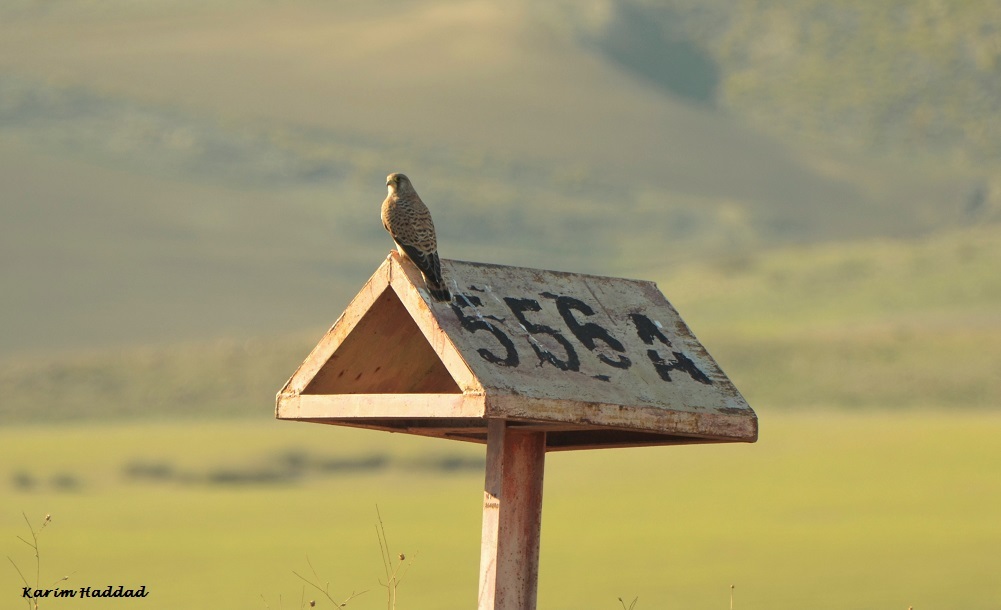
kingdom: Animalia
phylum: Chordata
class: Aves
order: Falconiformes
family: Falconidae
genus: Falco
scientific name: Falco tinnunculus
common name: Common kestrel
